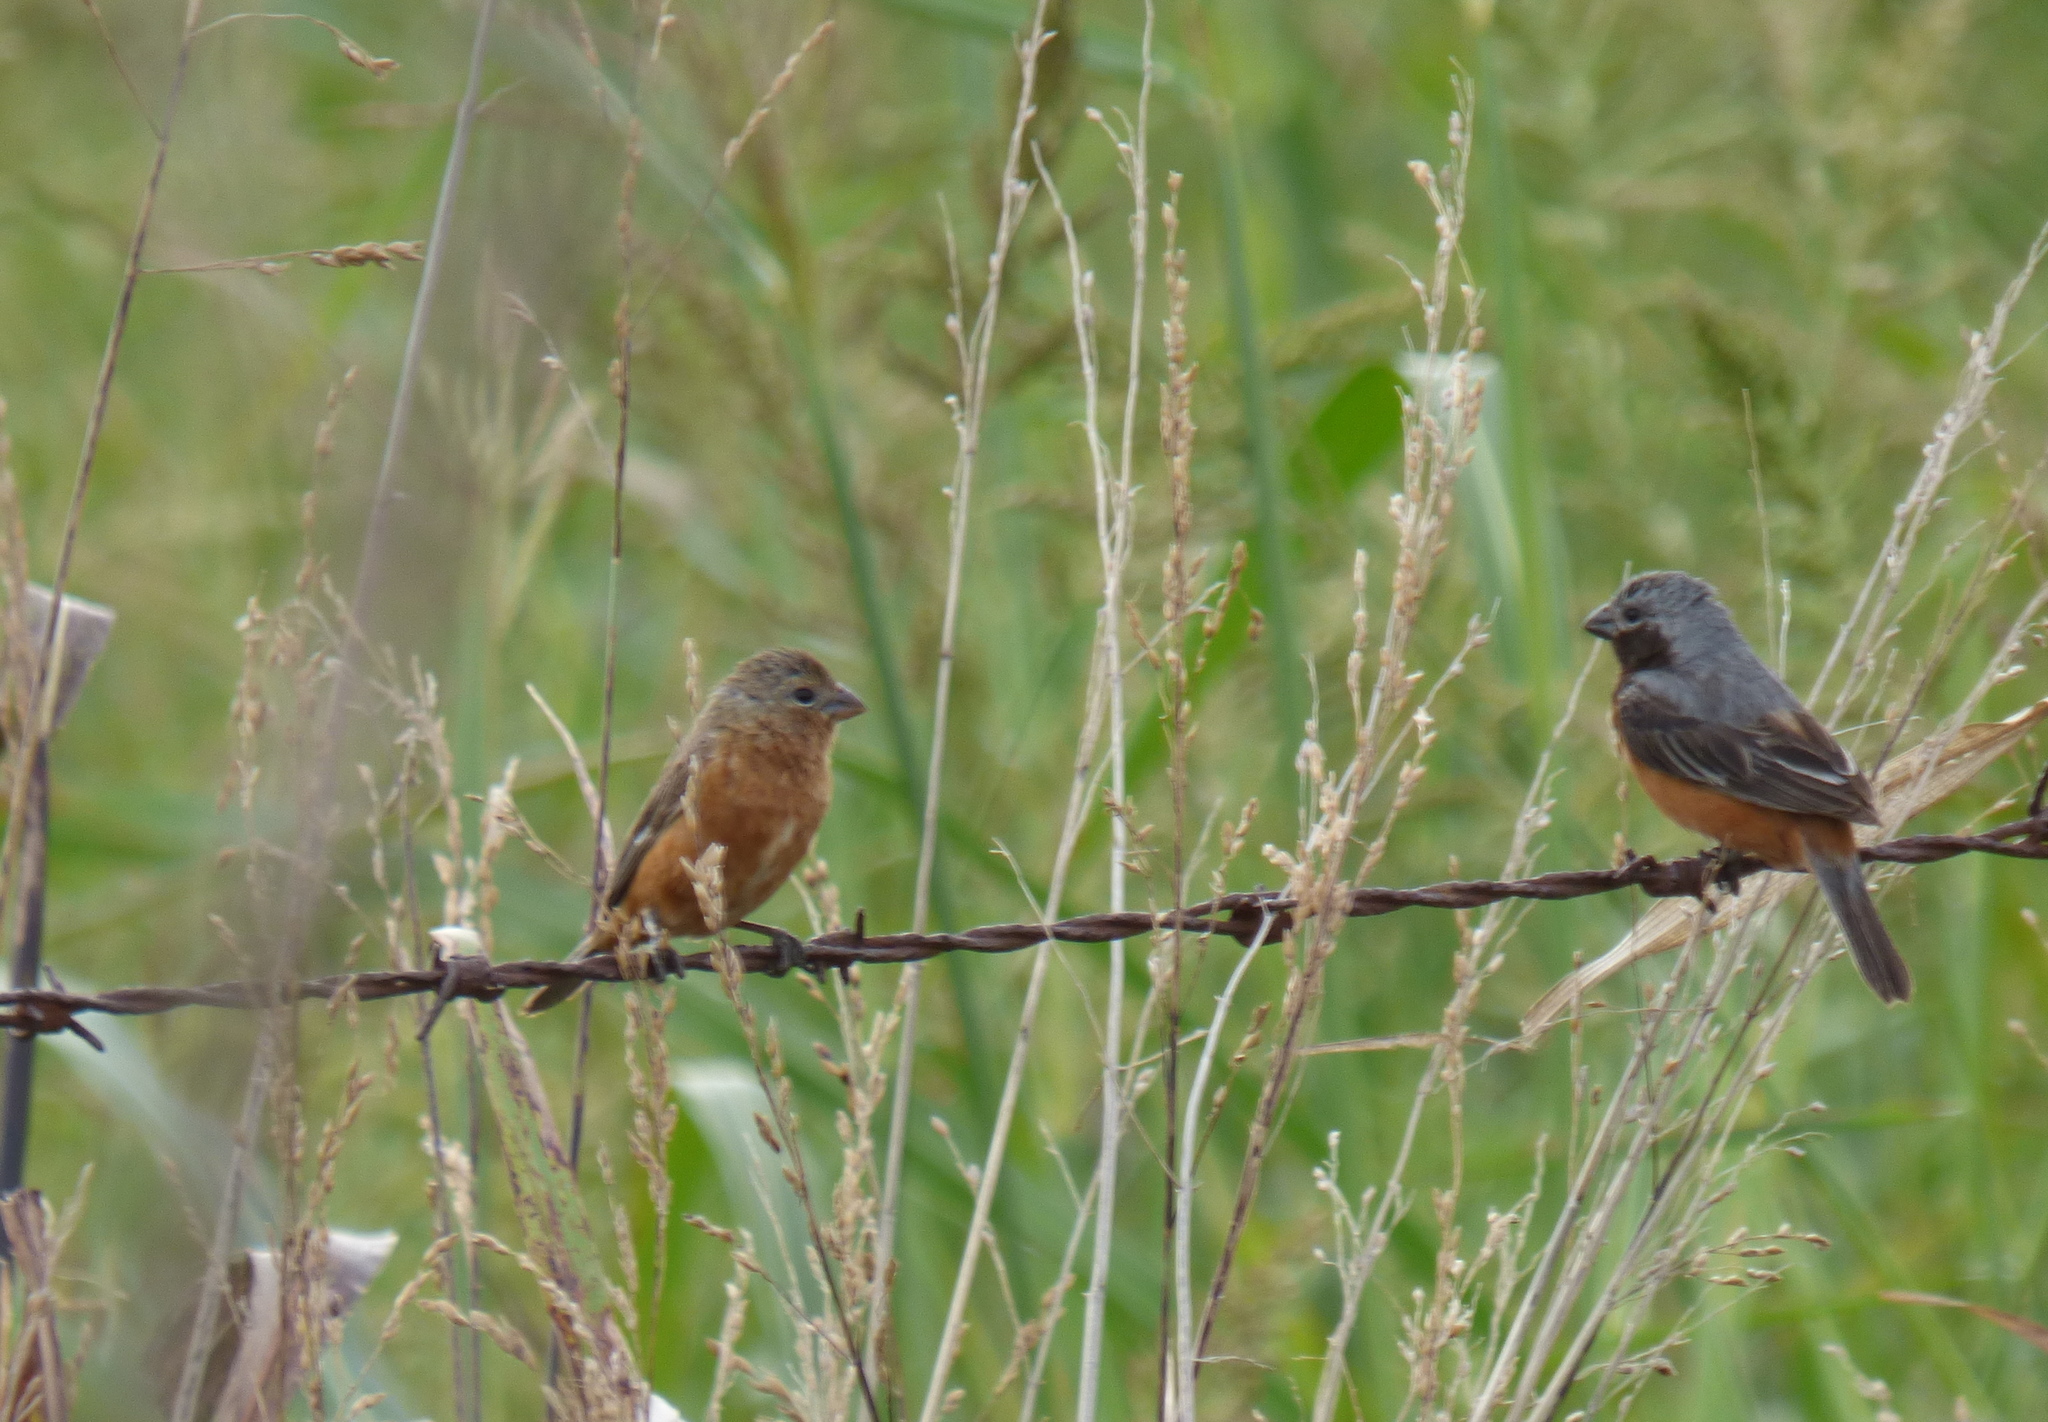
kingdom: Animalia
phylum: Chordata
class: Aves
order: Passeriformes
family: Thraupidae
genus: Sporophila
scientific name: Sporophila ruficollis
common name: Dark-throated seedeater
